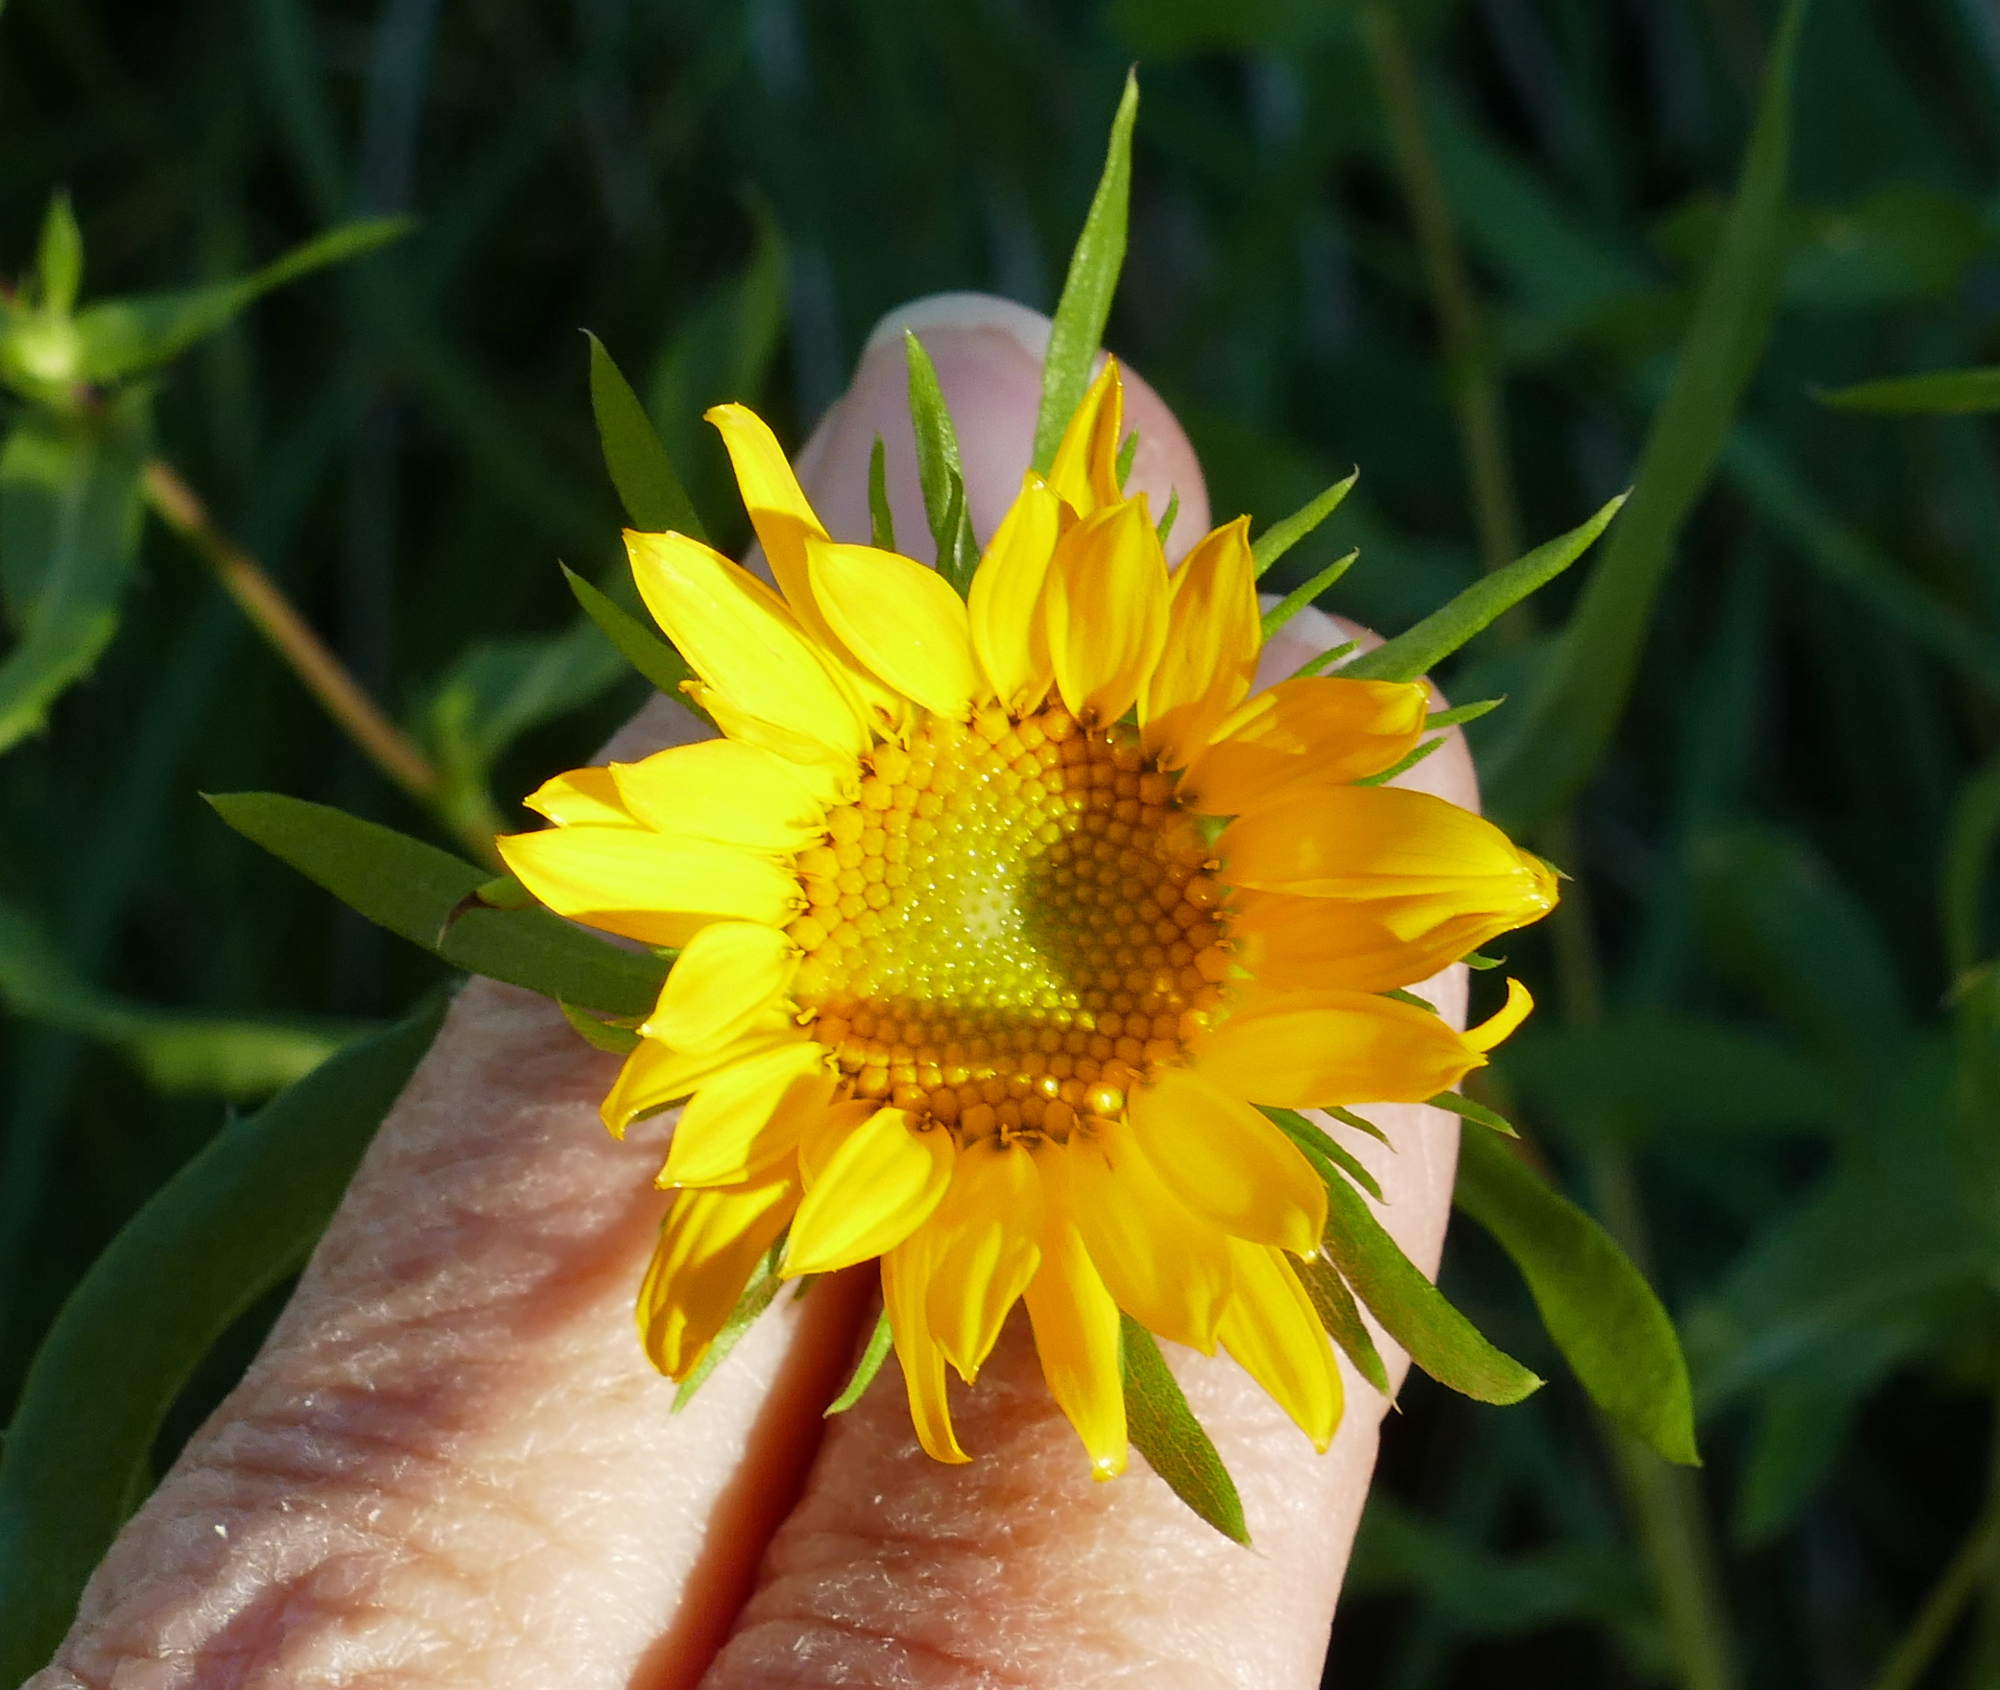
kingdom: Plantae
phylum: Tracheophyta
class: Magnoliopsida
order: Asterales
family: Asteraceae
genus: Grindelia
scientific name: Grindelia arizonica
